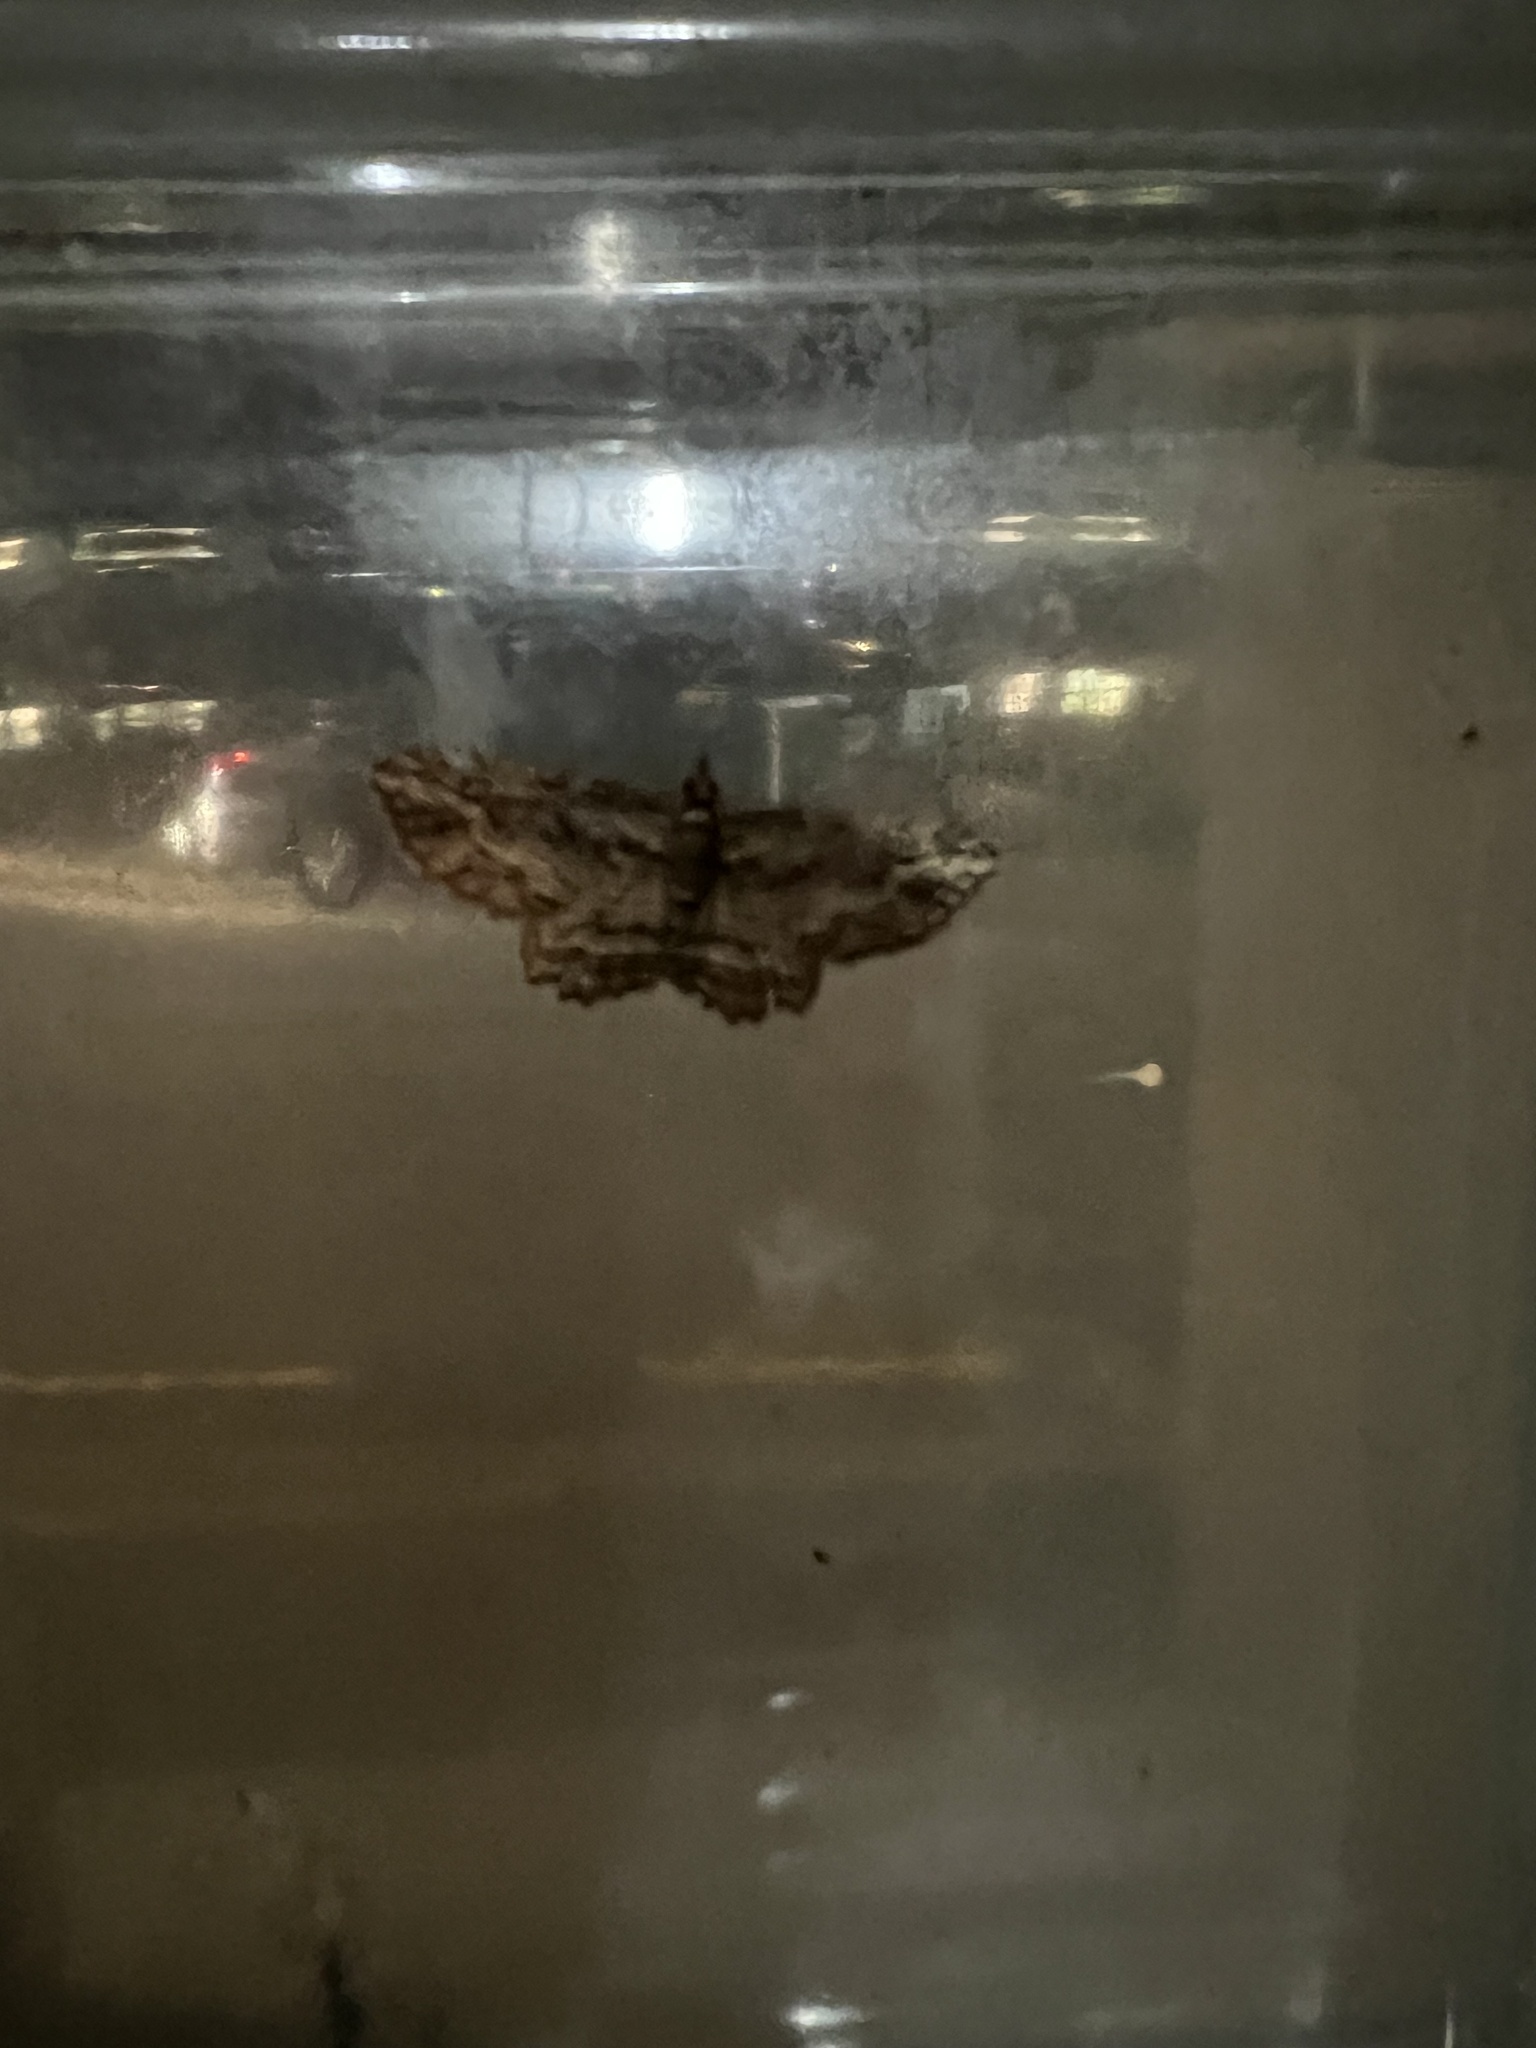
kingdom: Animalia
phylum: Arthropoda
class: Insecta
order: Lepidoptera
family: Geometridae
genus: Chloroclystis
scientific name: Chloroclystis filata
